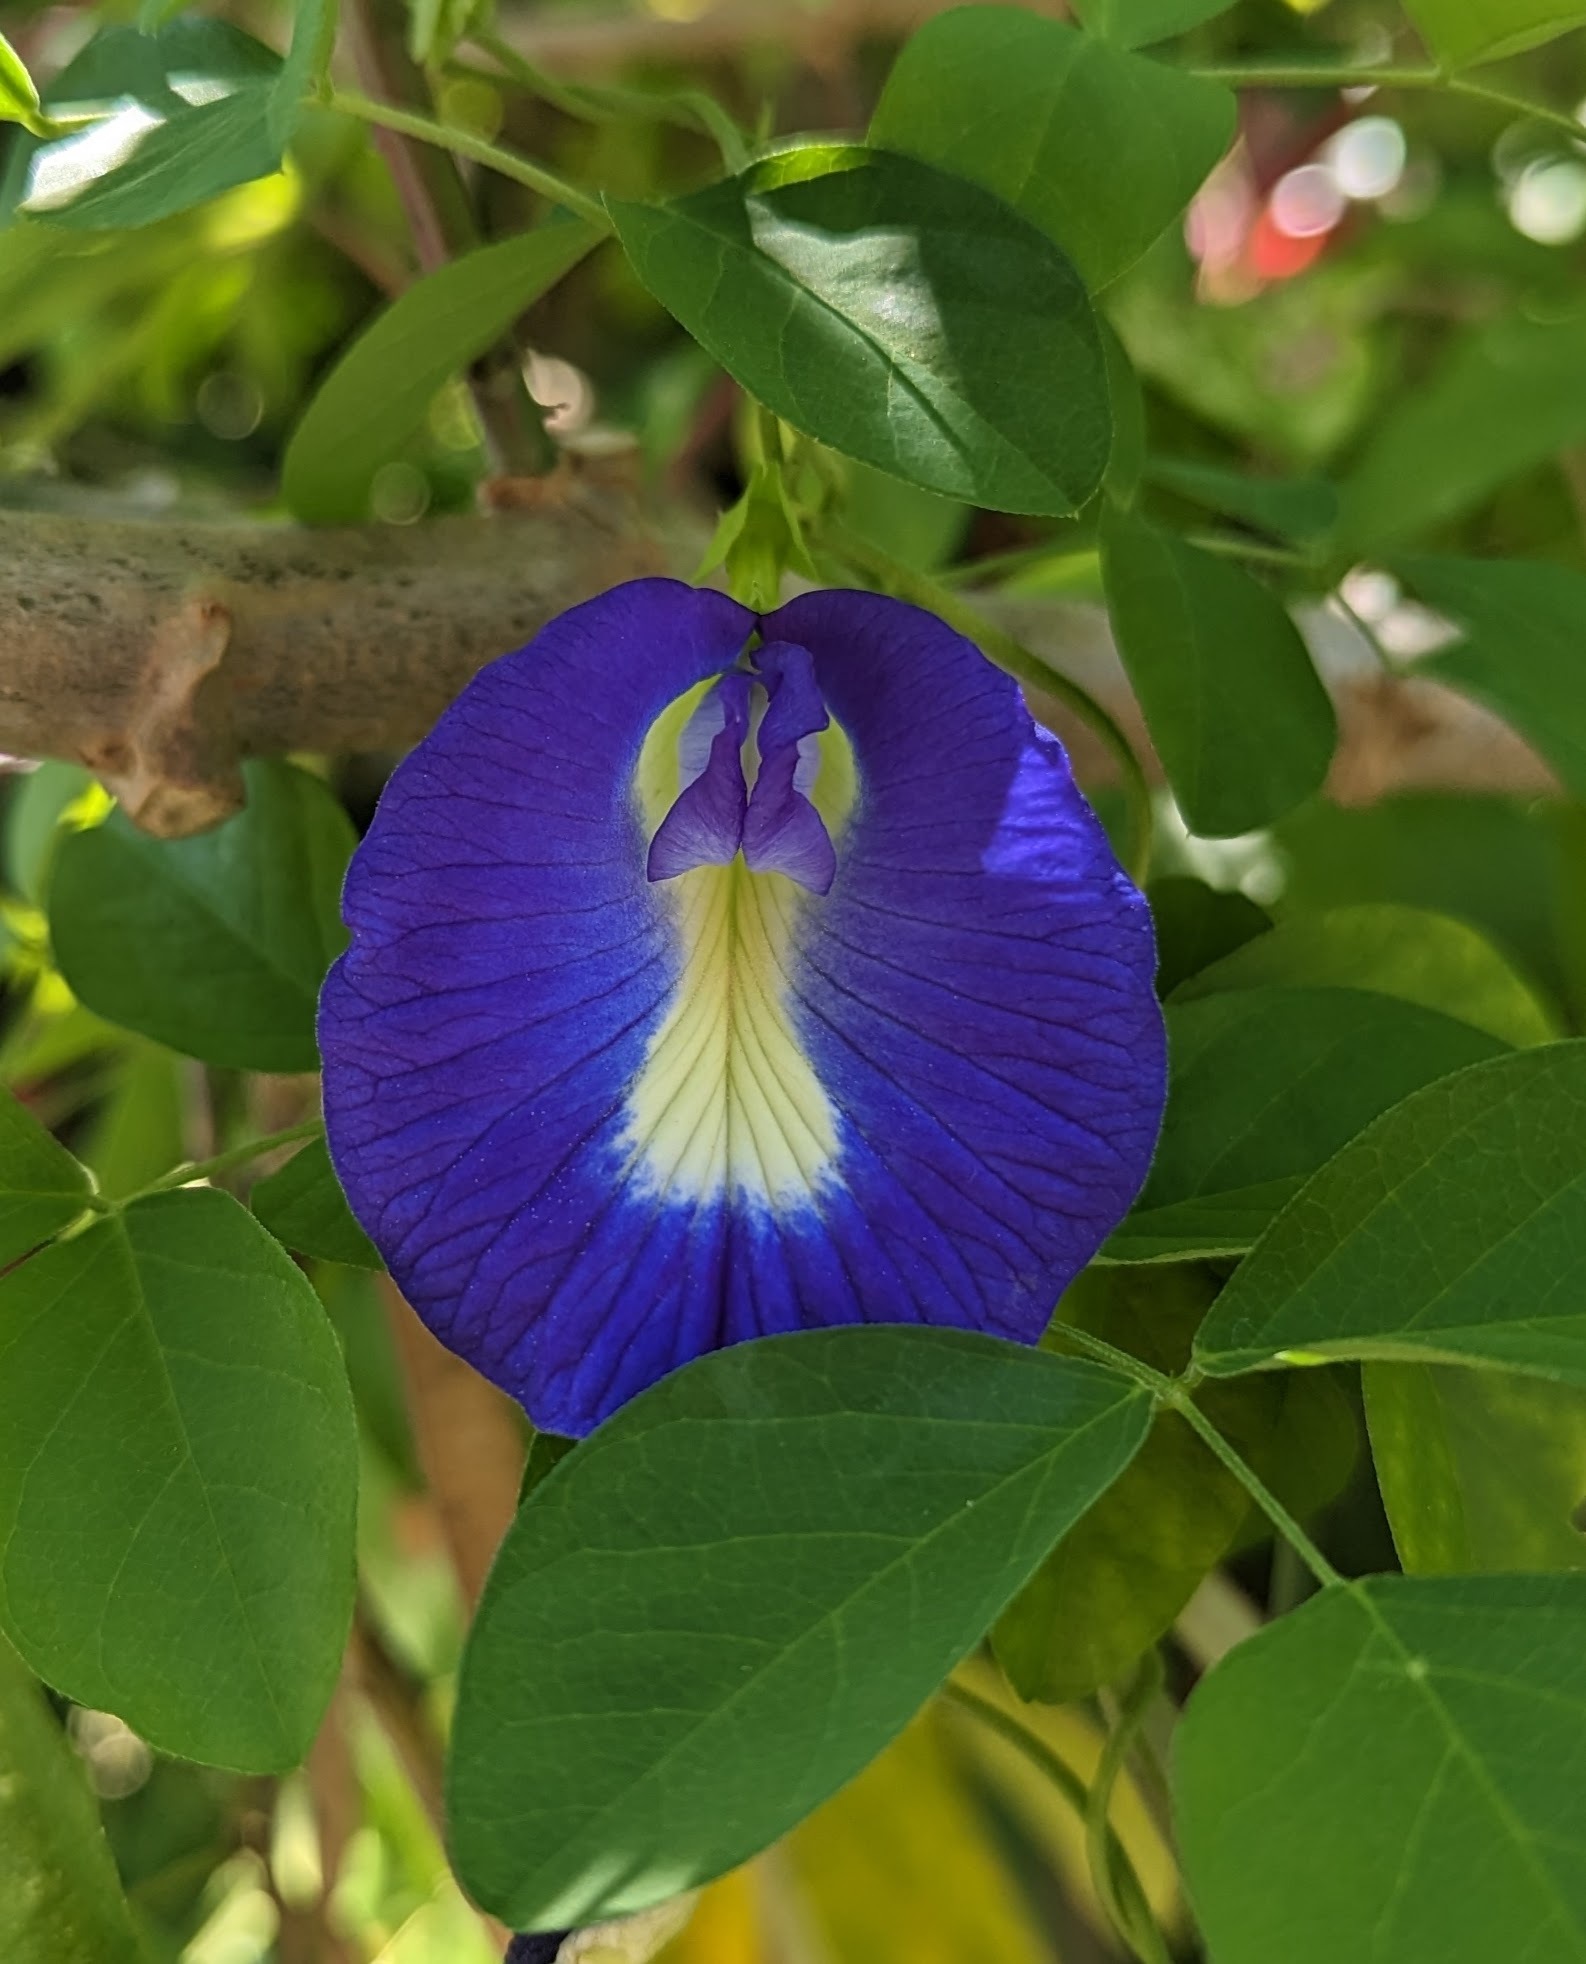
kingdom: Plantae
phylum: Tracheophyta
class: Magnoliopsida
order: Fabales
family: Fabaceae
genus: Clitoria
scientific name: Clitoria ternatea
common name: Asian pigeonwings
